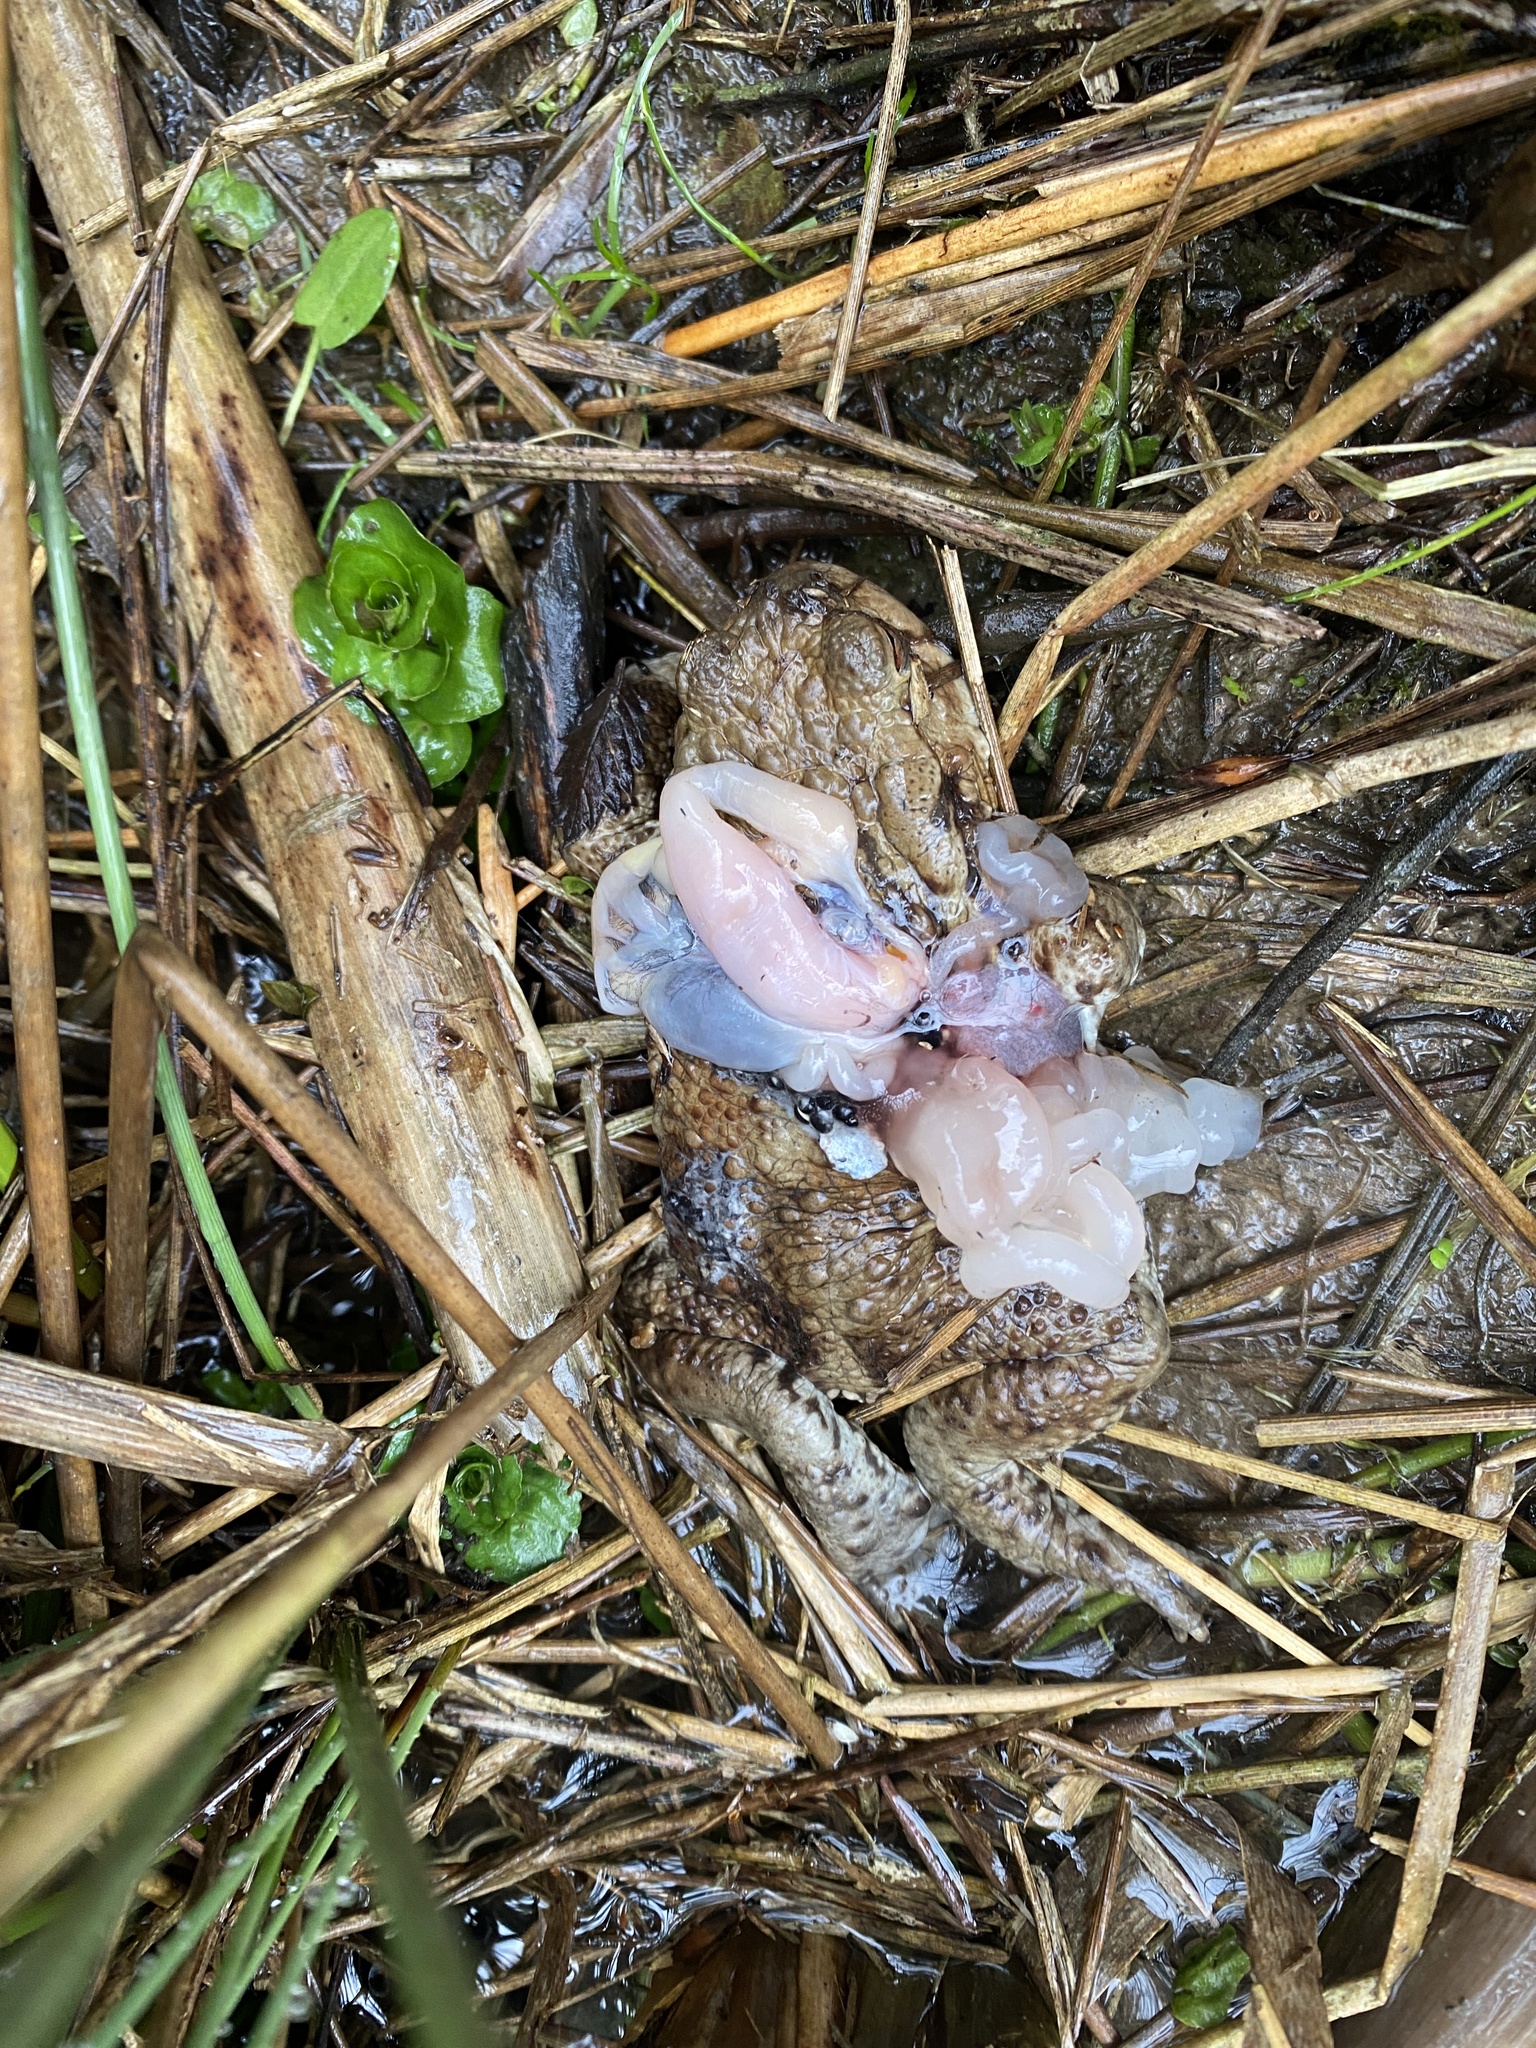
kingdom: Animalia
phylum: Chordata
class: Amphibia
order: Anura
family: Bufonidae
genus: Bufo
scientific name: Bufo bufo
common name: Common toad
